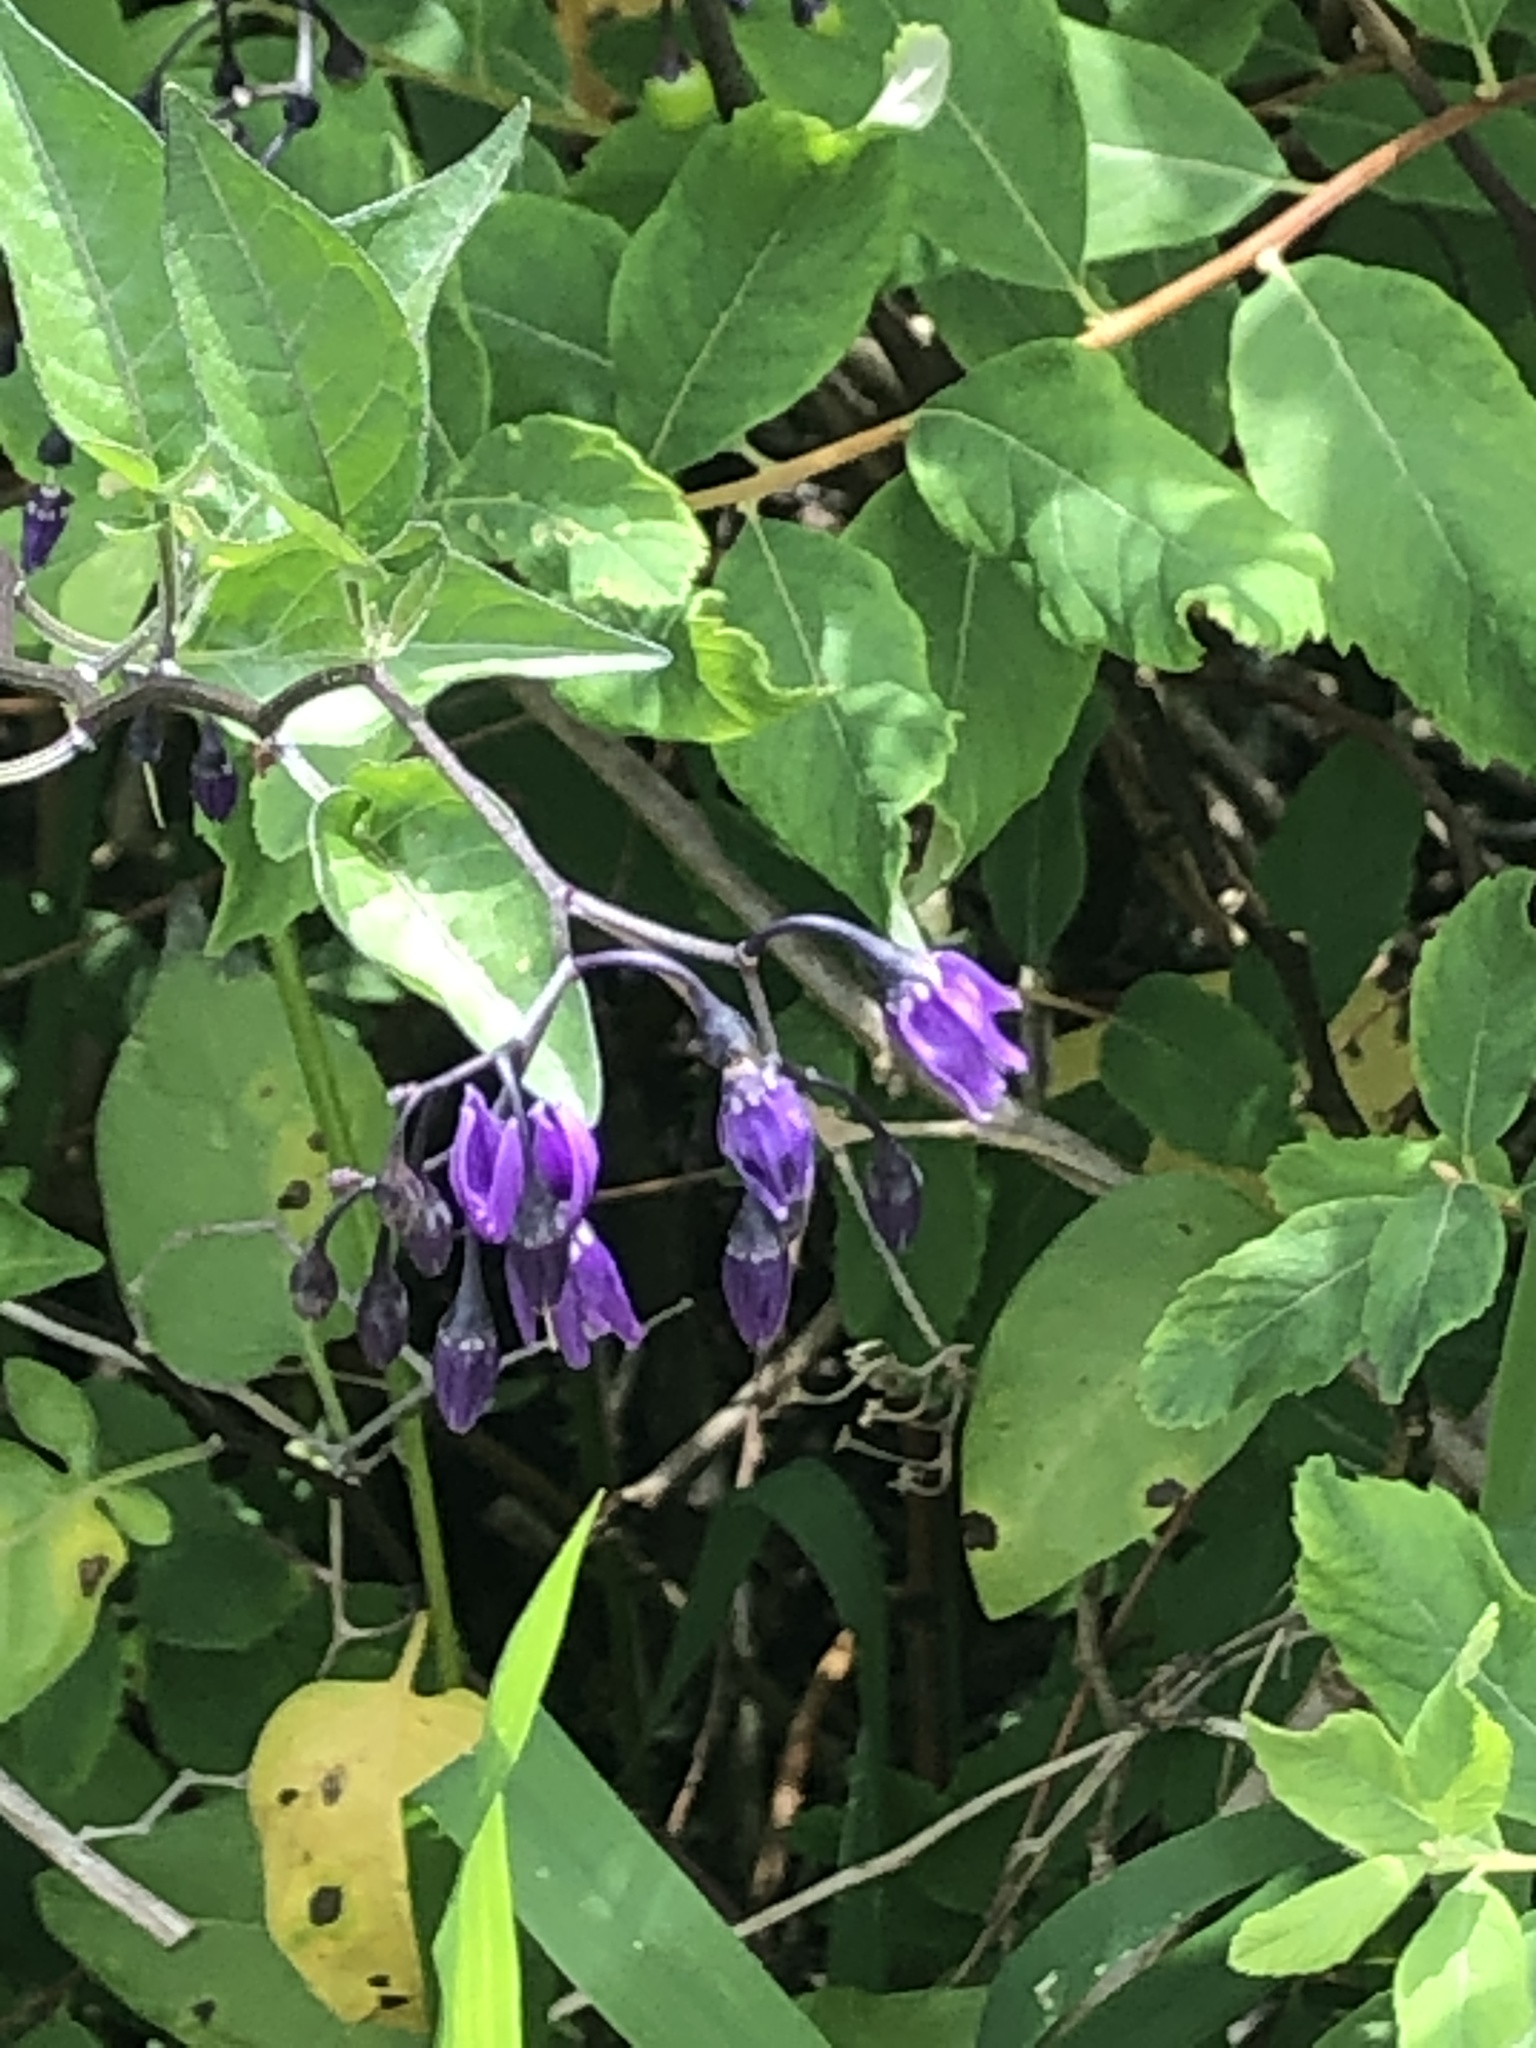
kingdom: Plantae
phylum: Tracheophyta
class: Magnoliopsida
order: Solanales
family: Solanaceae
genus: Solanum
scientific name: Solanum dulcamara
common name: Climbing nightshade
